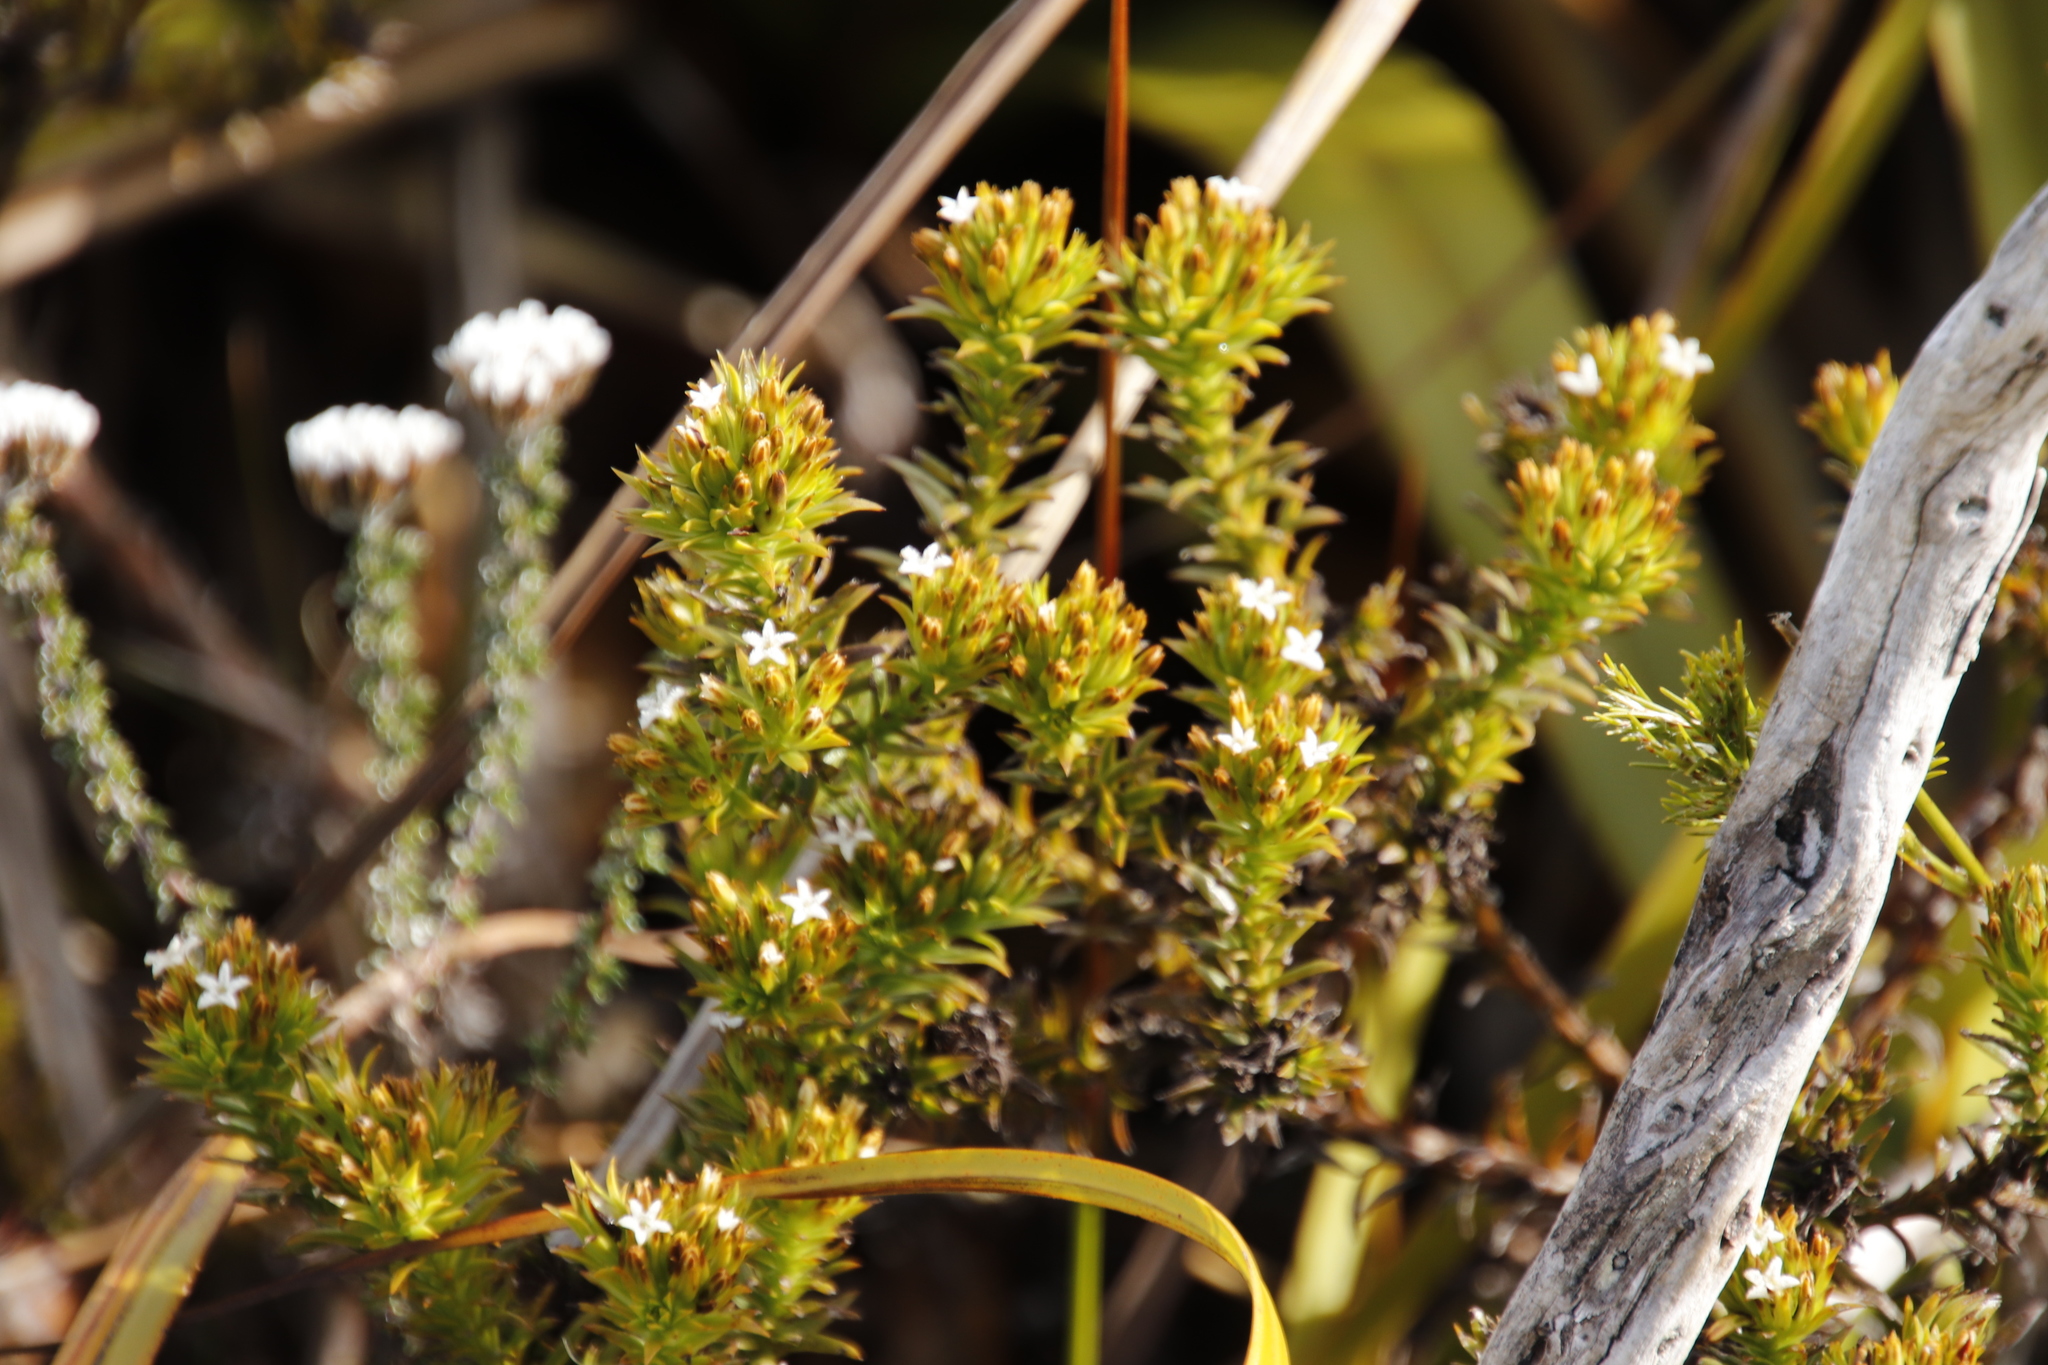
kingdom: Plantae
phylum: Tracheophyta
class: Magnoliopsida
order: Santalales
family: Thesiaceae
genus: Thesium
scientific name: Thesium viridifolium
